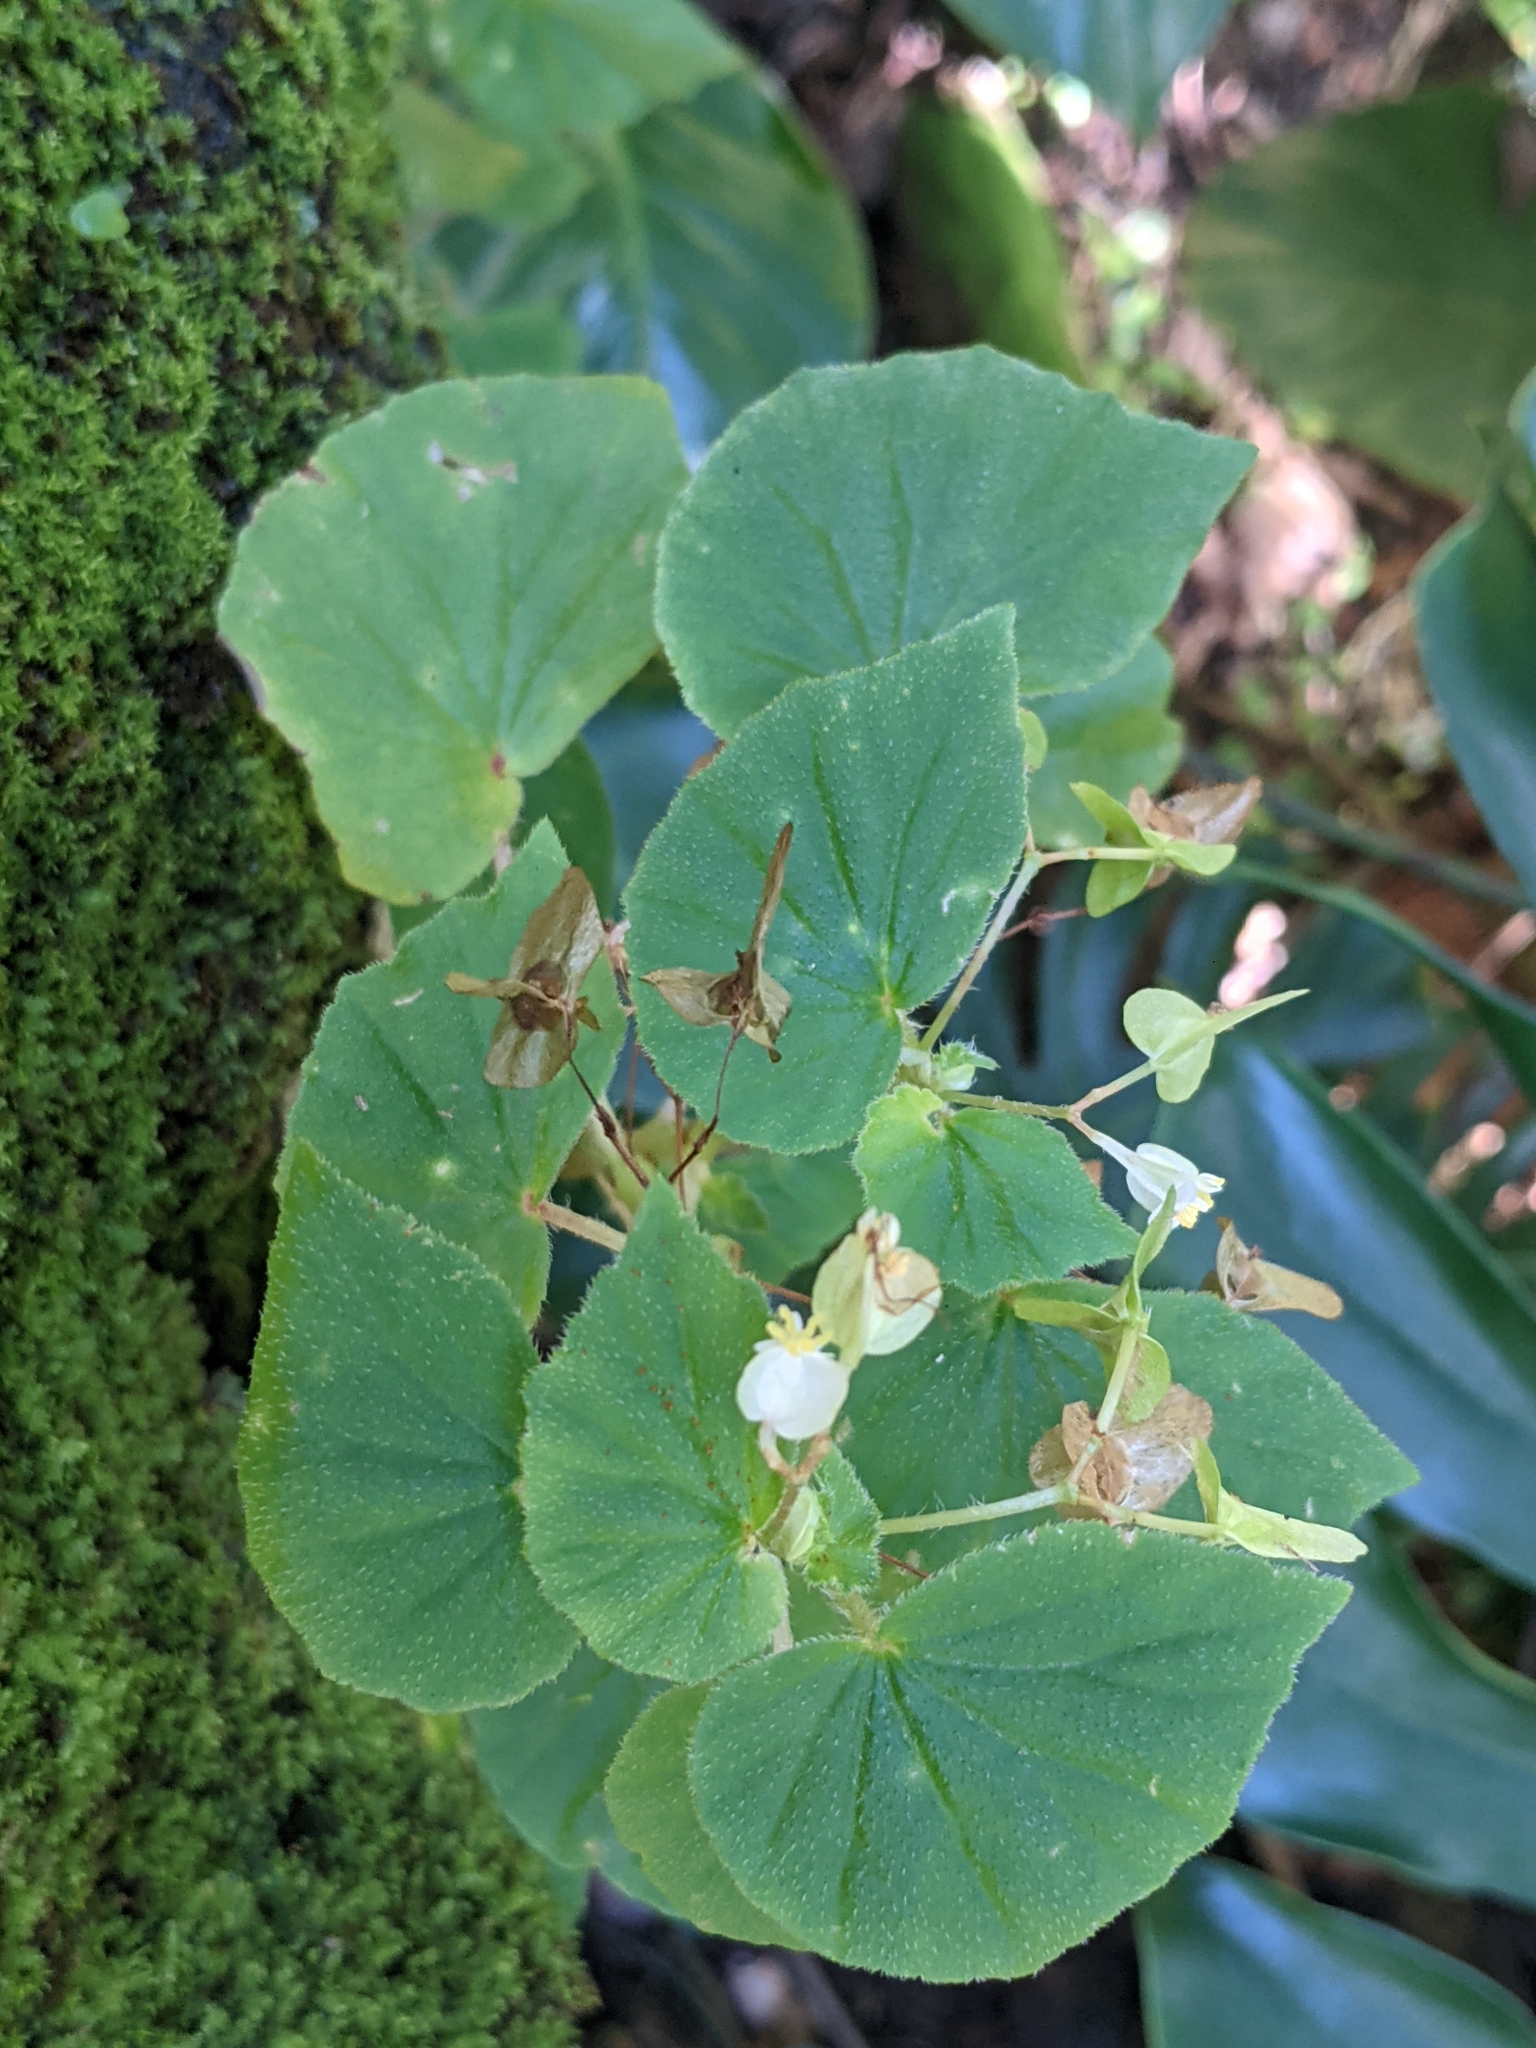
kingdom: Plantae
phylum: Tracheophyta
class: Magnoliopsida
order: Cucurbitales
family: Begoniaceae
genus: Begonia
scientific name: Begonia hirtella
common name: Brazilian begonia
